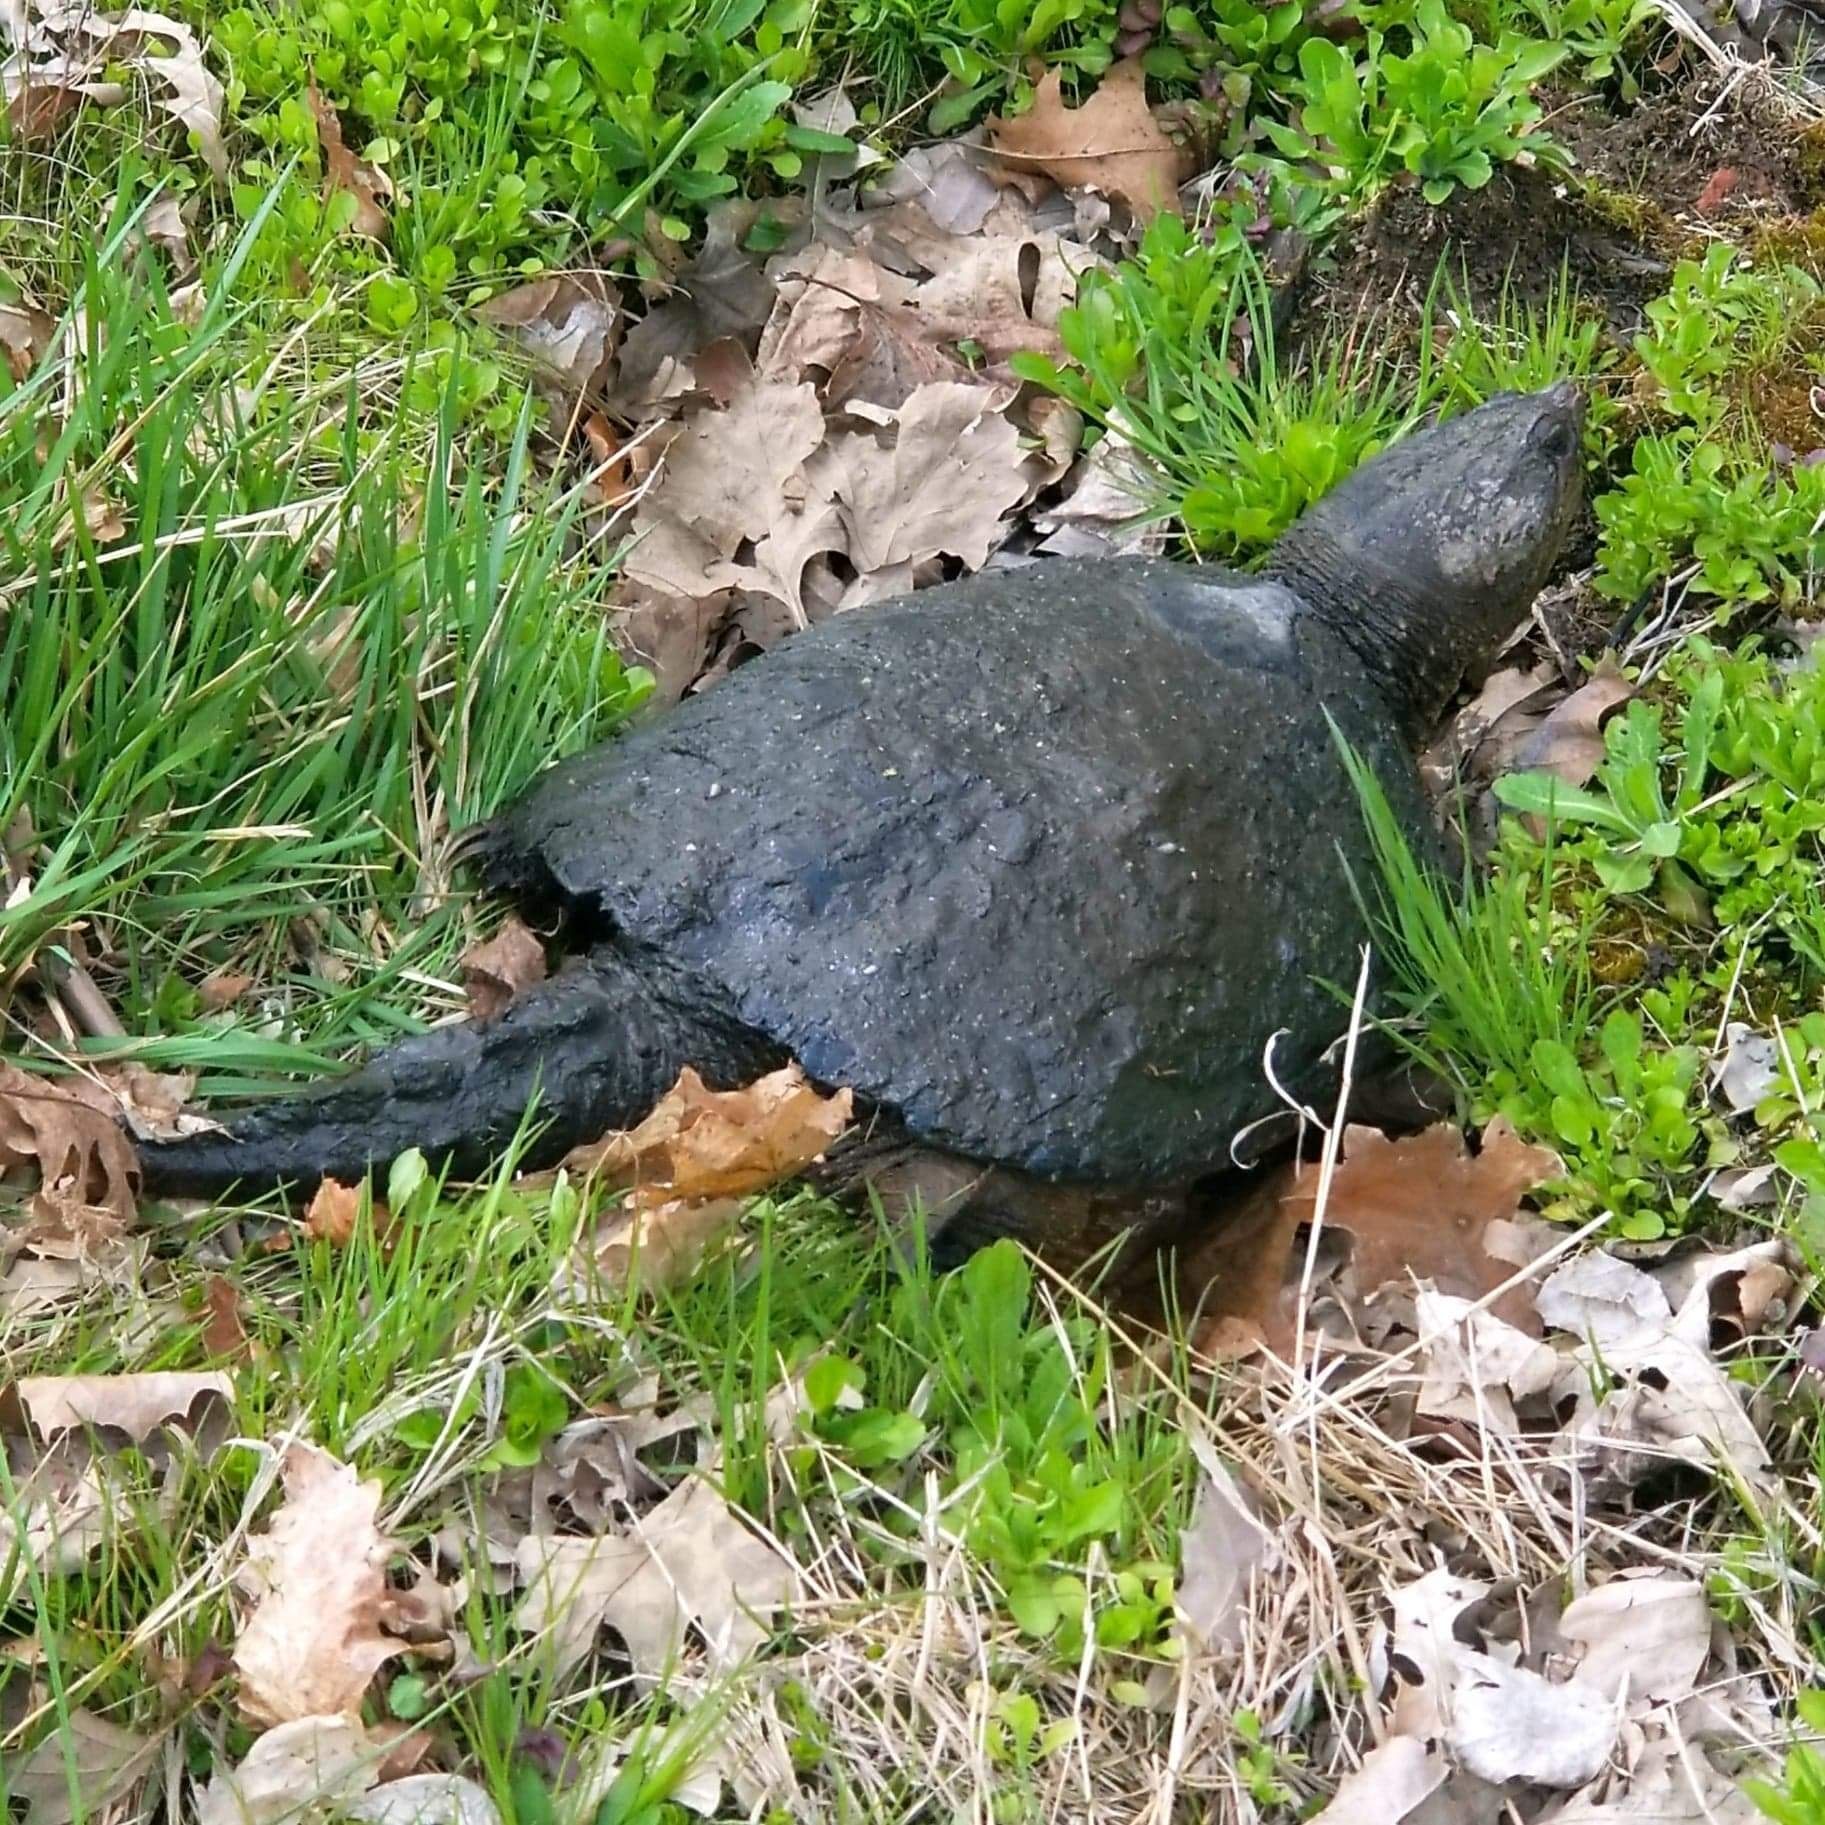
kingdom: Animalia
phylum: Chordata
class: Testudines
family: Chelydridae
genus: Chelydra
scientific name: Chelydra serpentina
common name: Common snapping turtle
